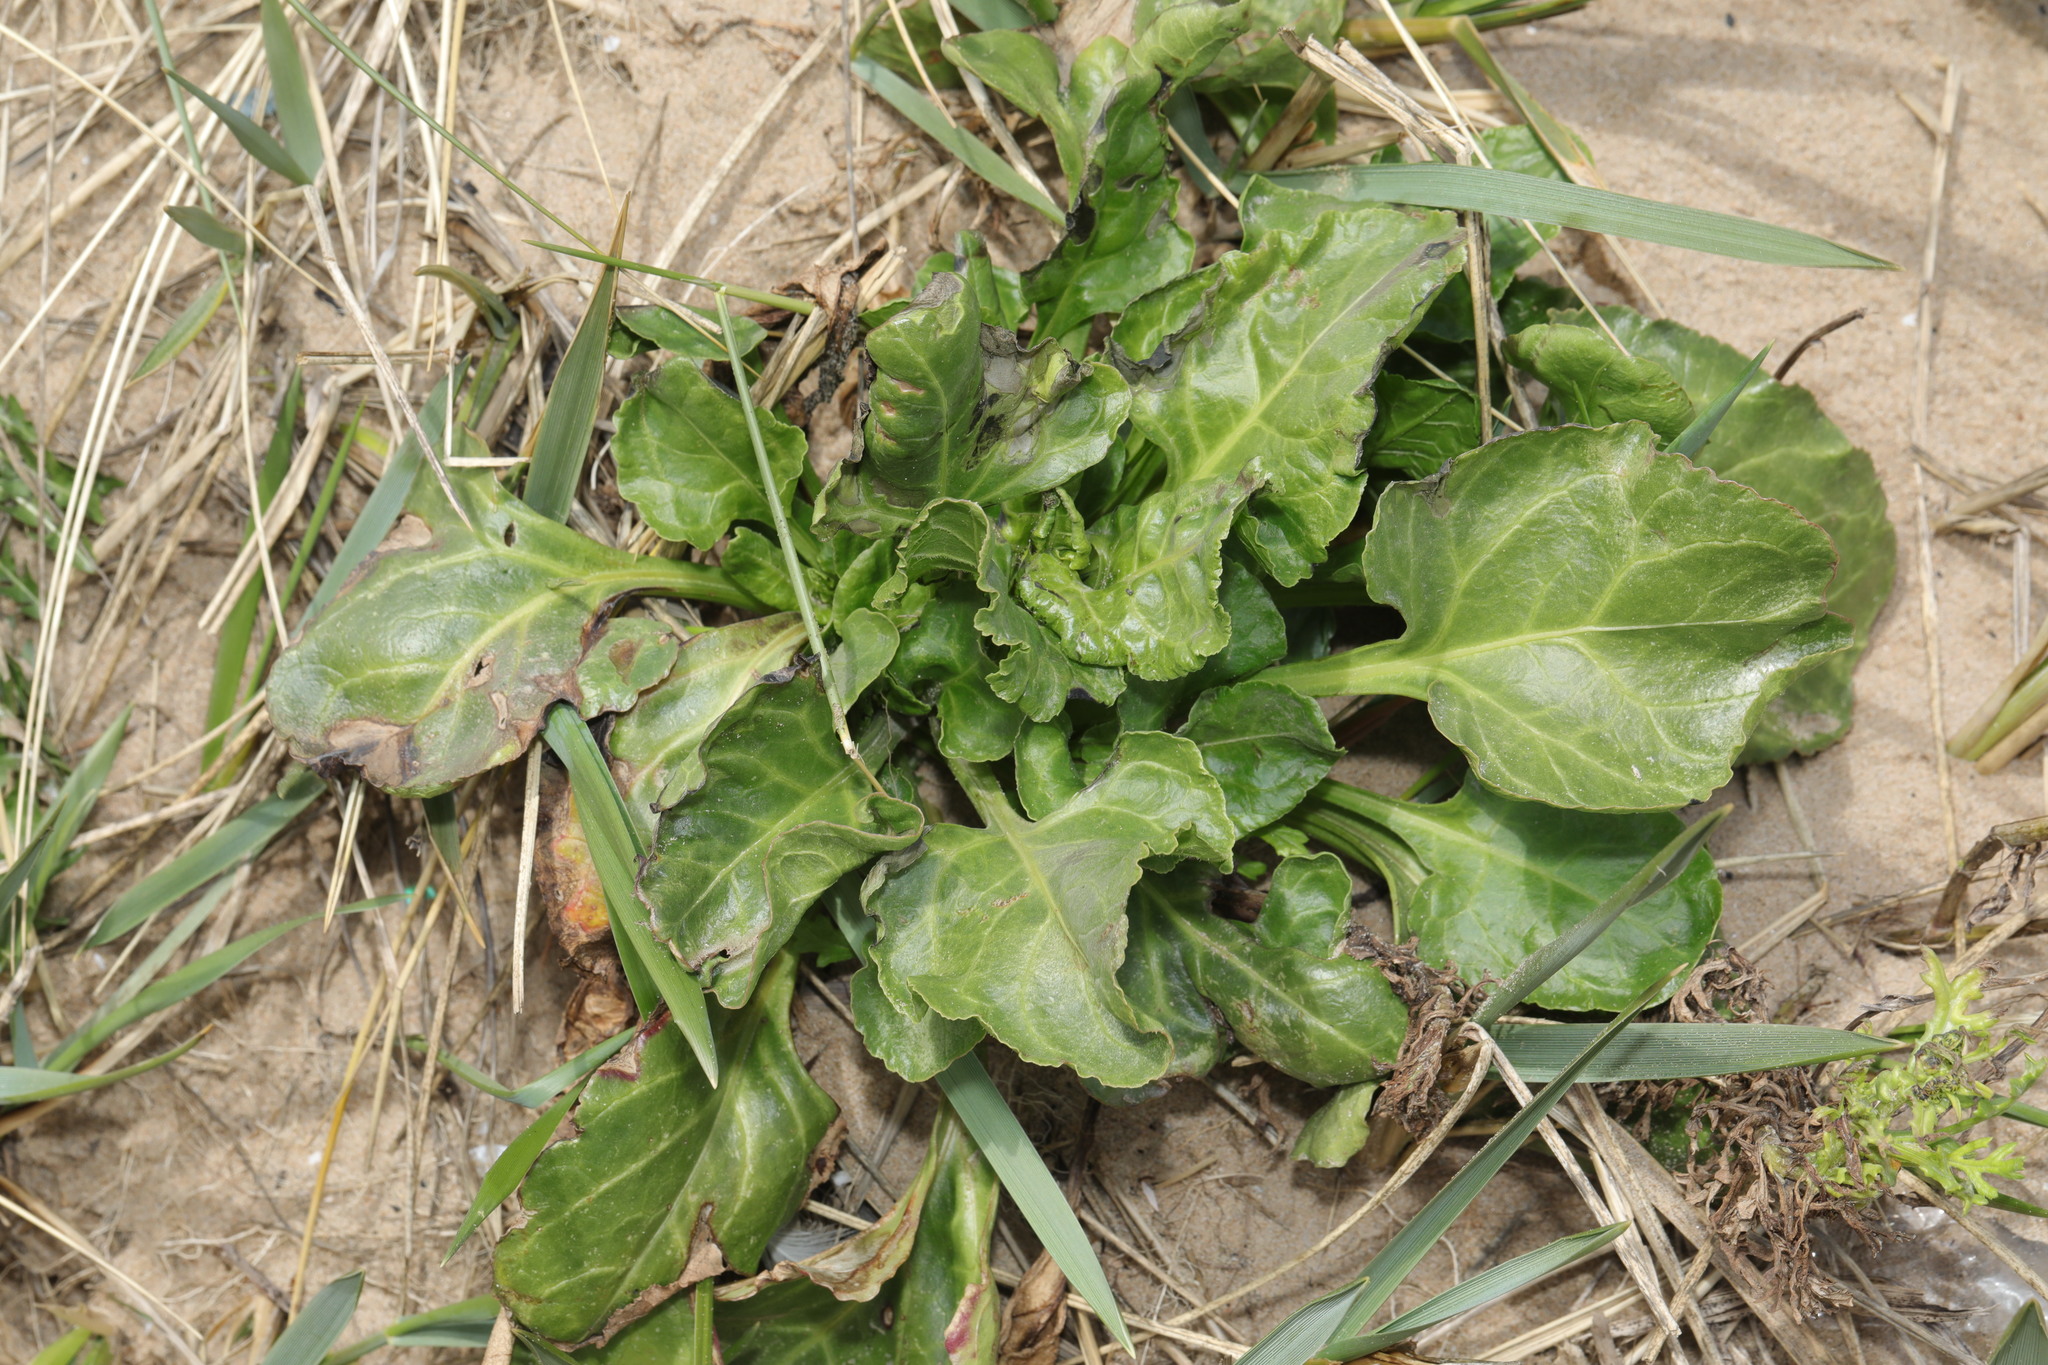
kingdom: Plantae
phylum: Tracheophyta
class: Magnoliopsida
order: Caryophyllales
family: Amaranthaceae
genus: Beta
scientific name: Beta vulgaris
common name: Beet
